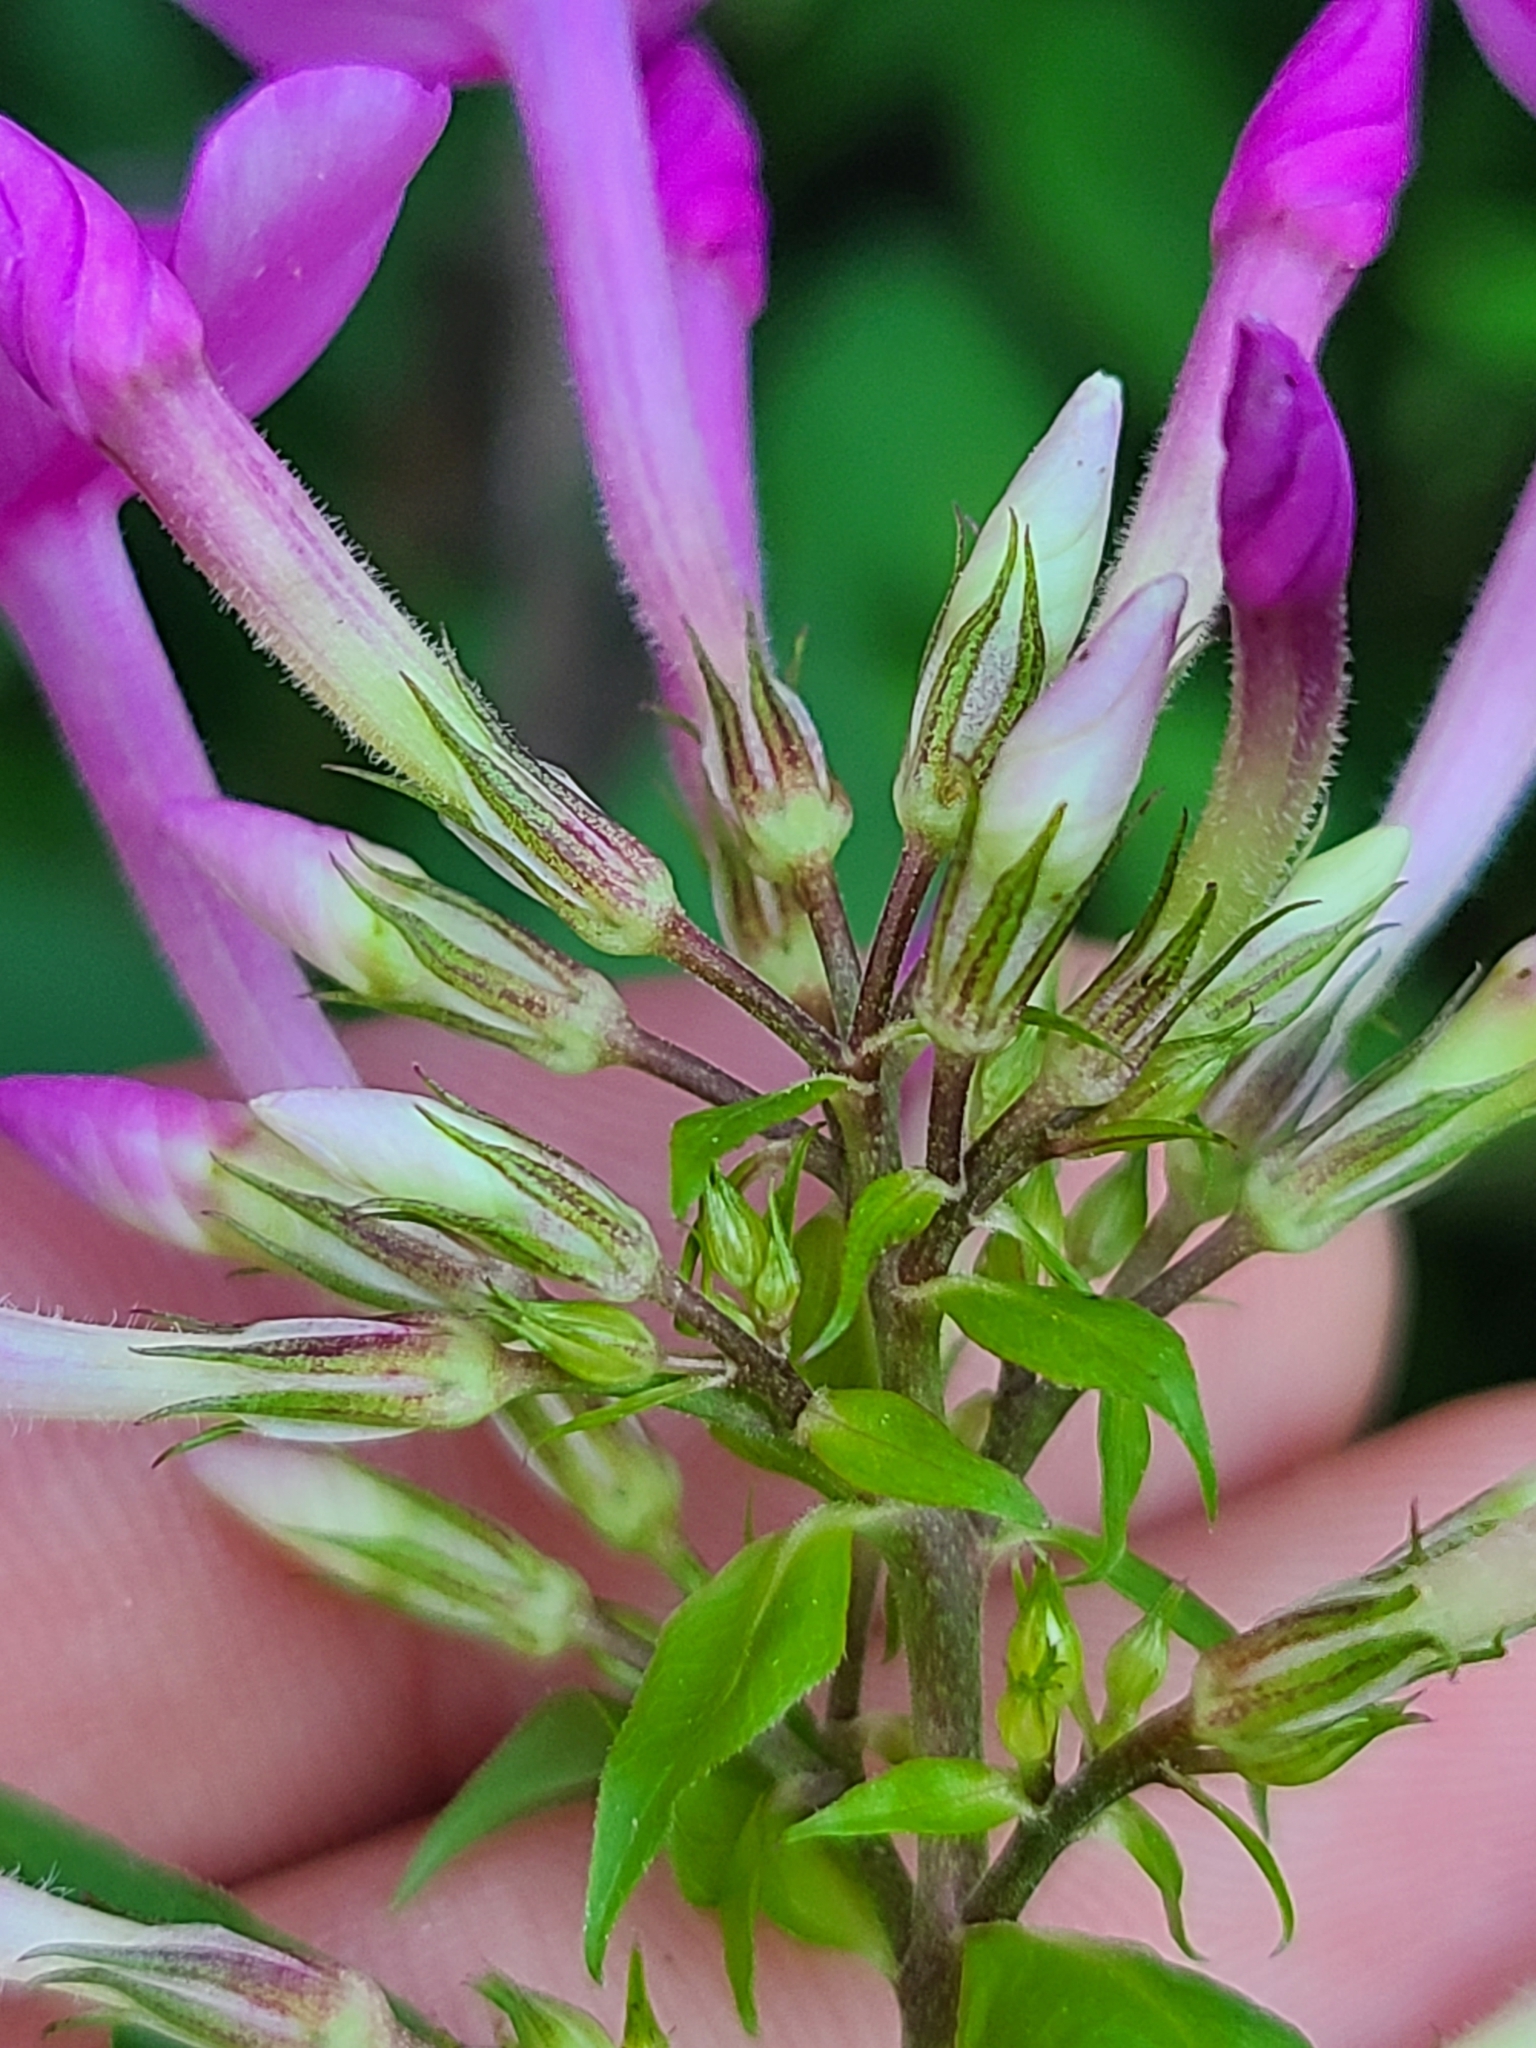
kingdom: Plantae
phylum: Tracheophyta
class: Magnoliopsida
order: Ericales
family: Polemoniaceae
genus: Phlox
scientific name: Phlox paniculata
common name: Fall phlox
